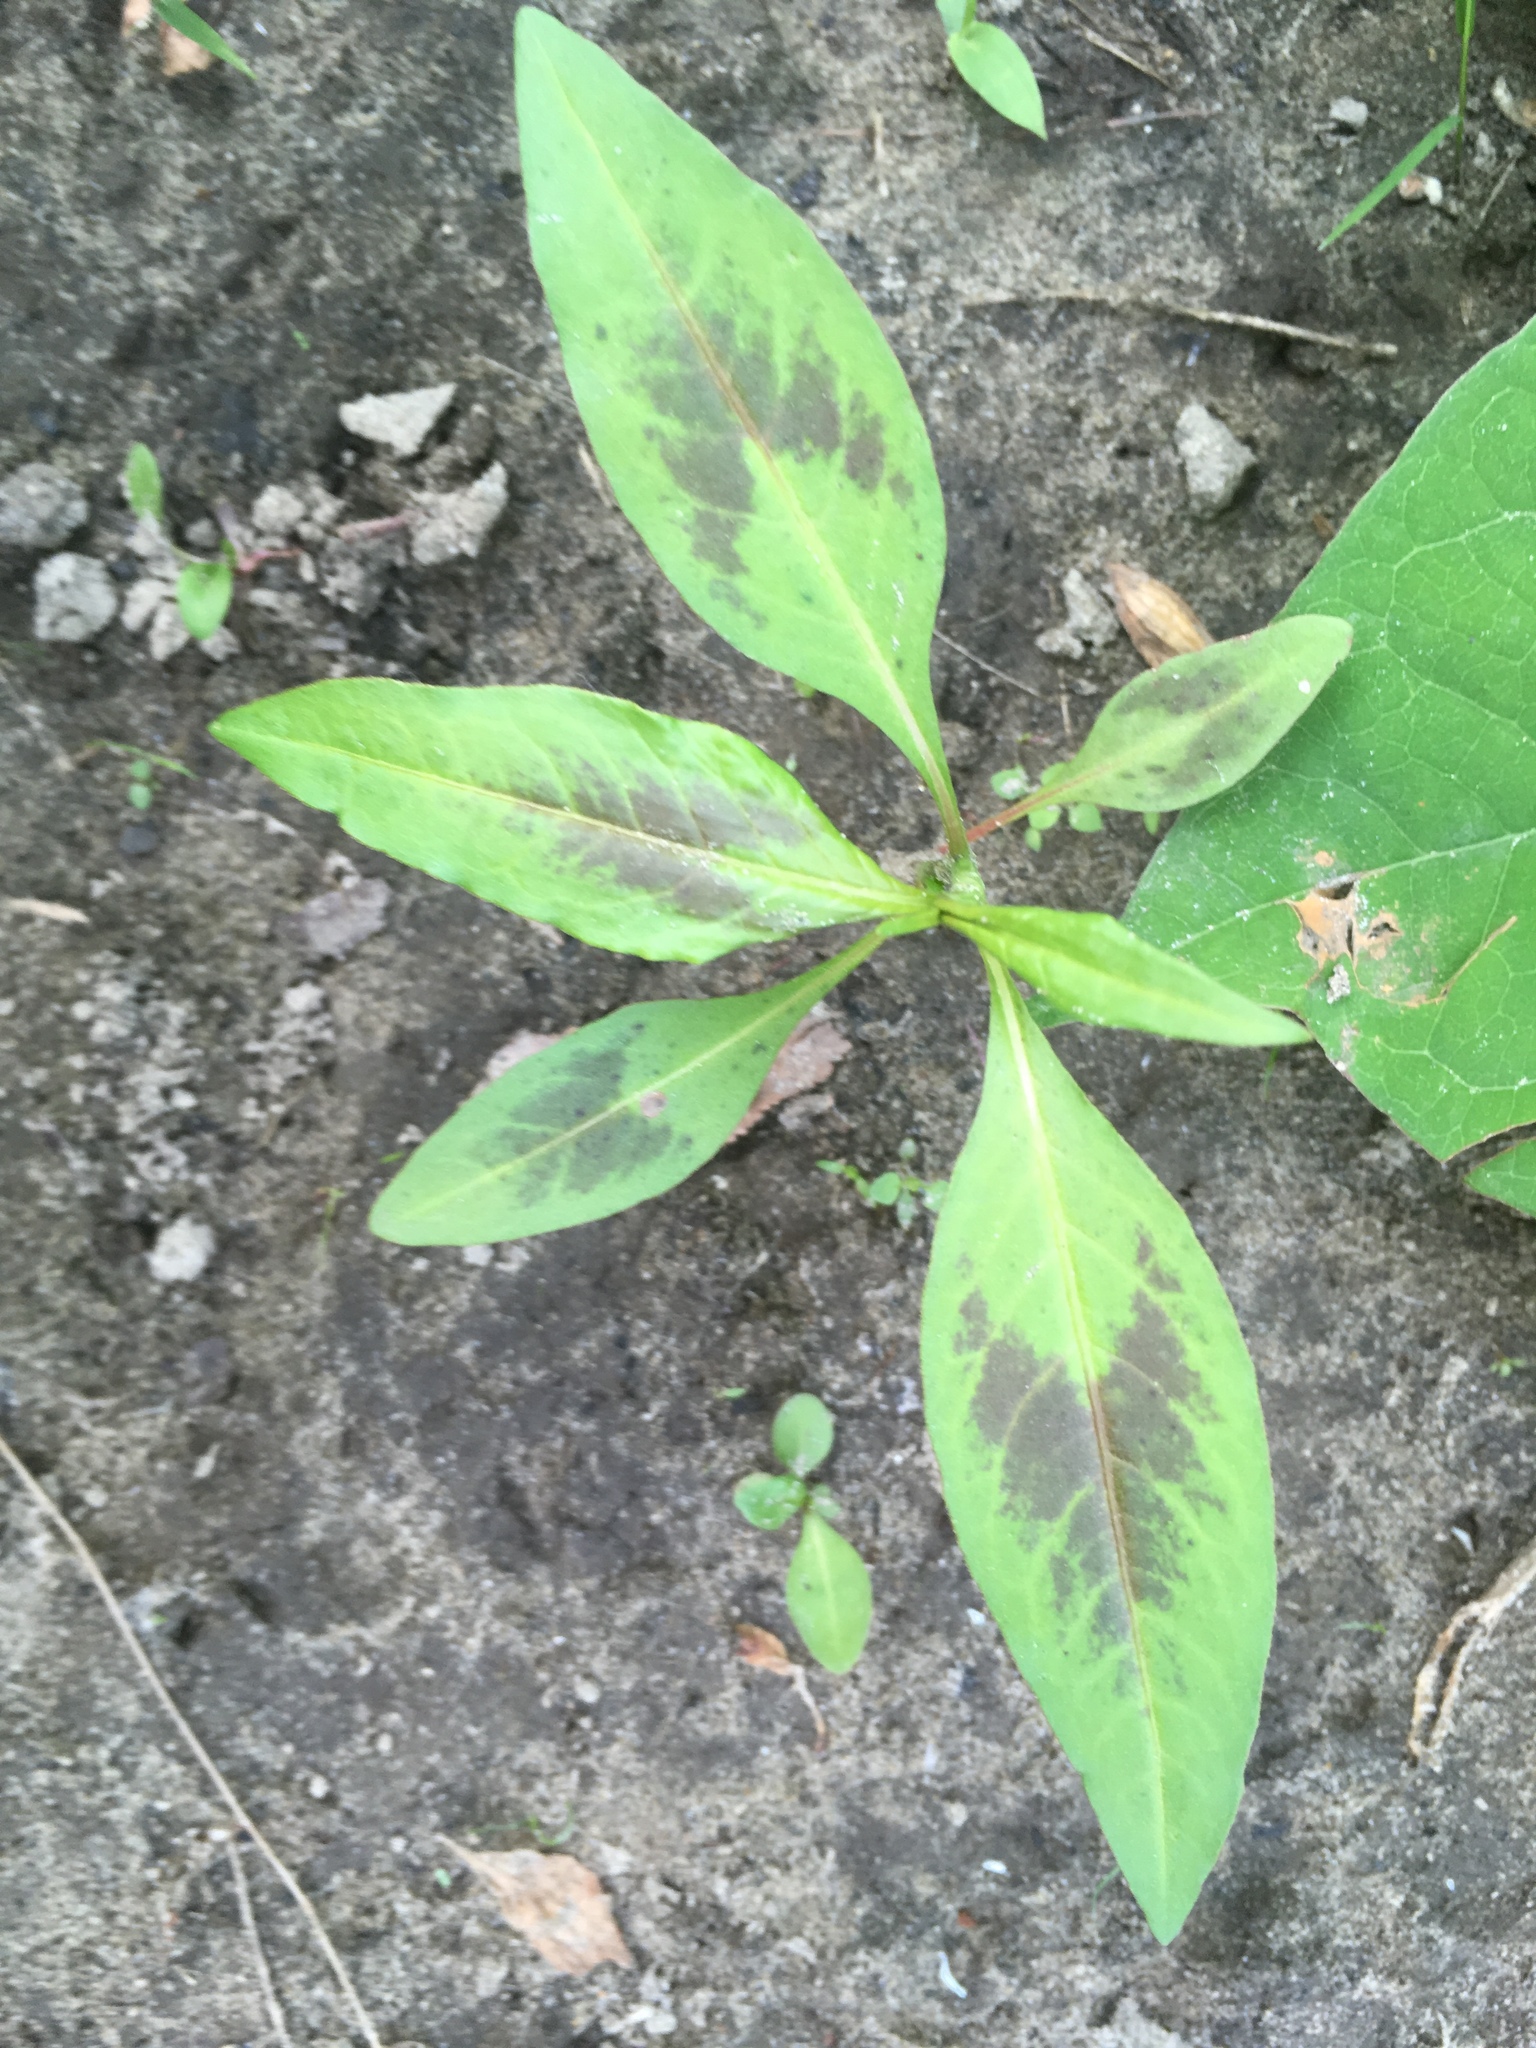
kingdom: Plantae
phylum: Tracheophyta
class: Magnoliopsida
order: Caryophyllales
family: Polygonaceae
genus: Persicaria
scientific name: Persicaria maculosa
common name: Redshank
